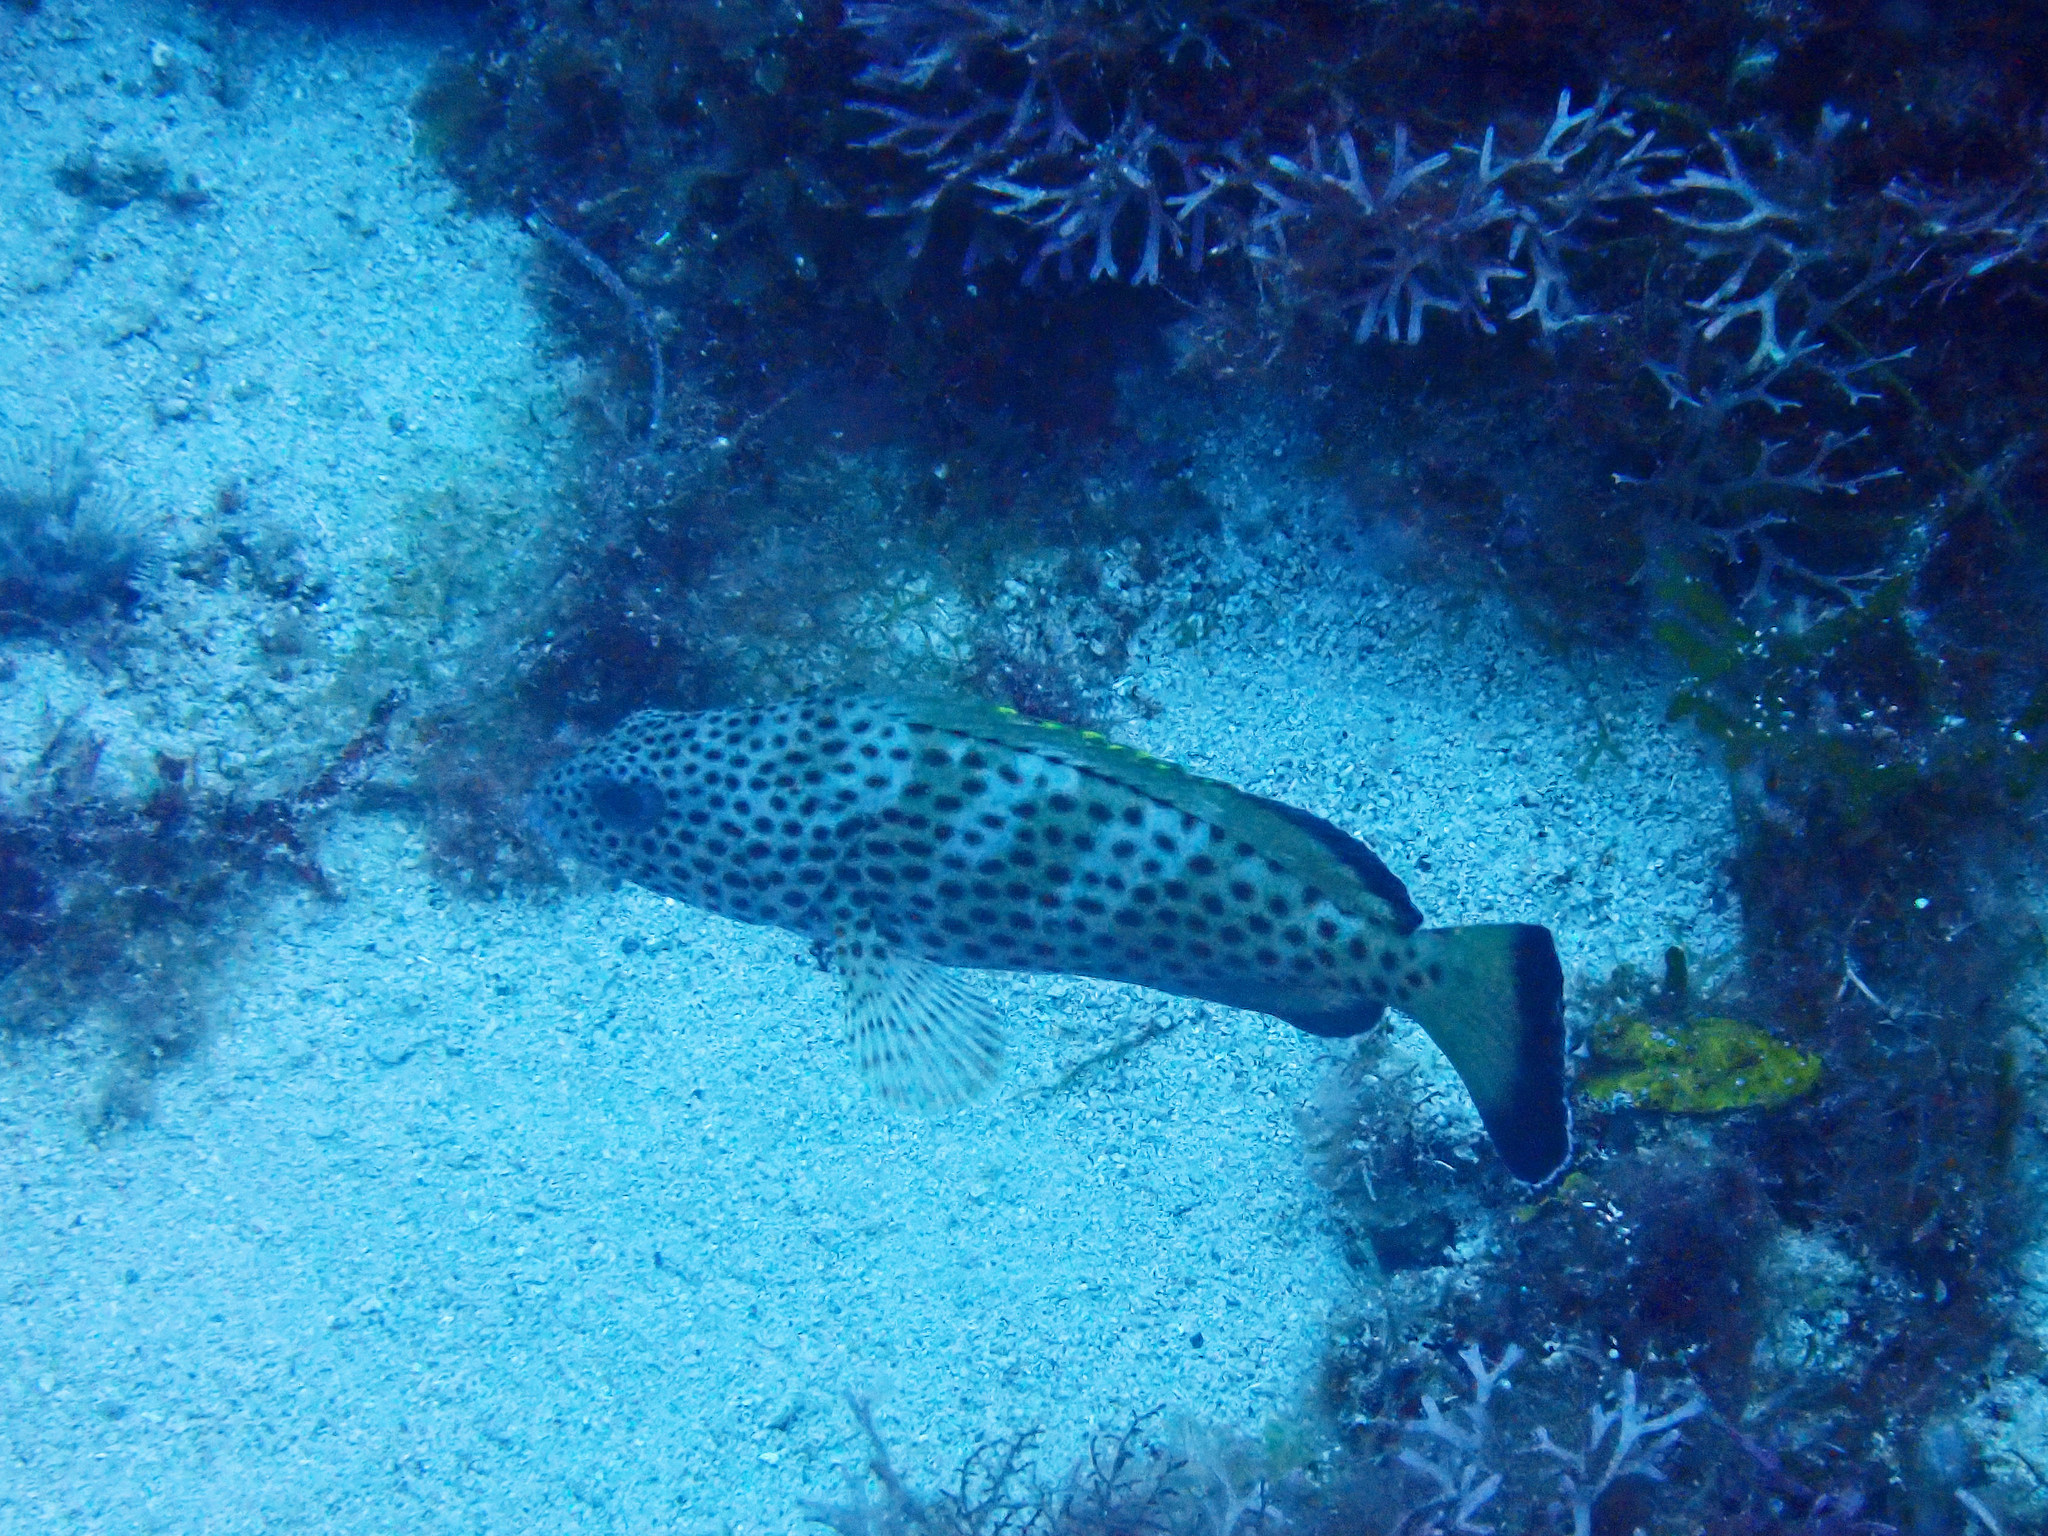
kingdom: Animalia
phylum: Chordata
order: Perciformes
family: Serranidae
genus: Epinephelus
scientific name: Epinephelus guttatus
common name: Red hind
